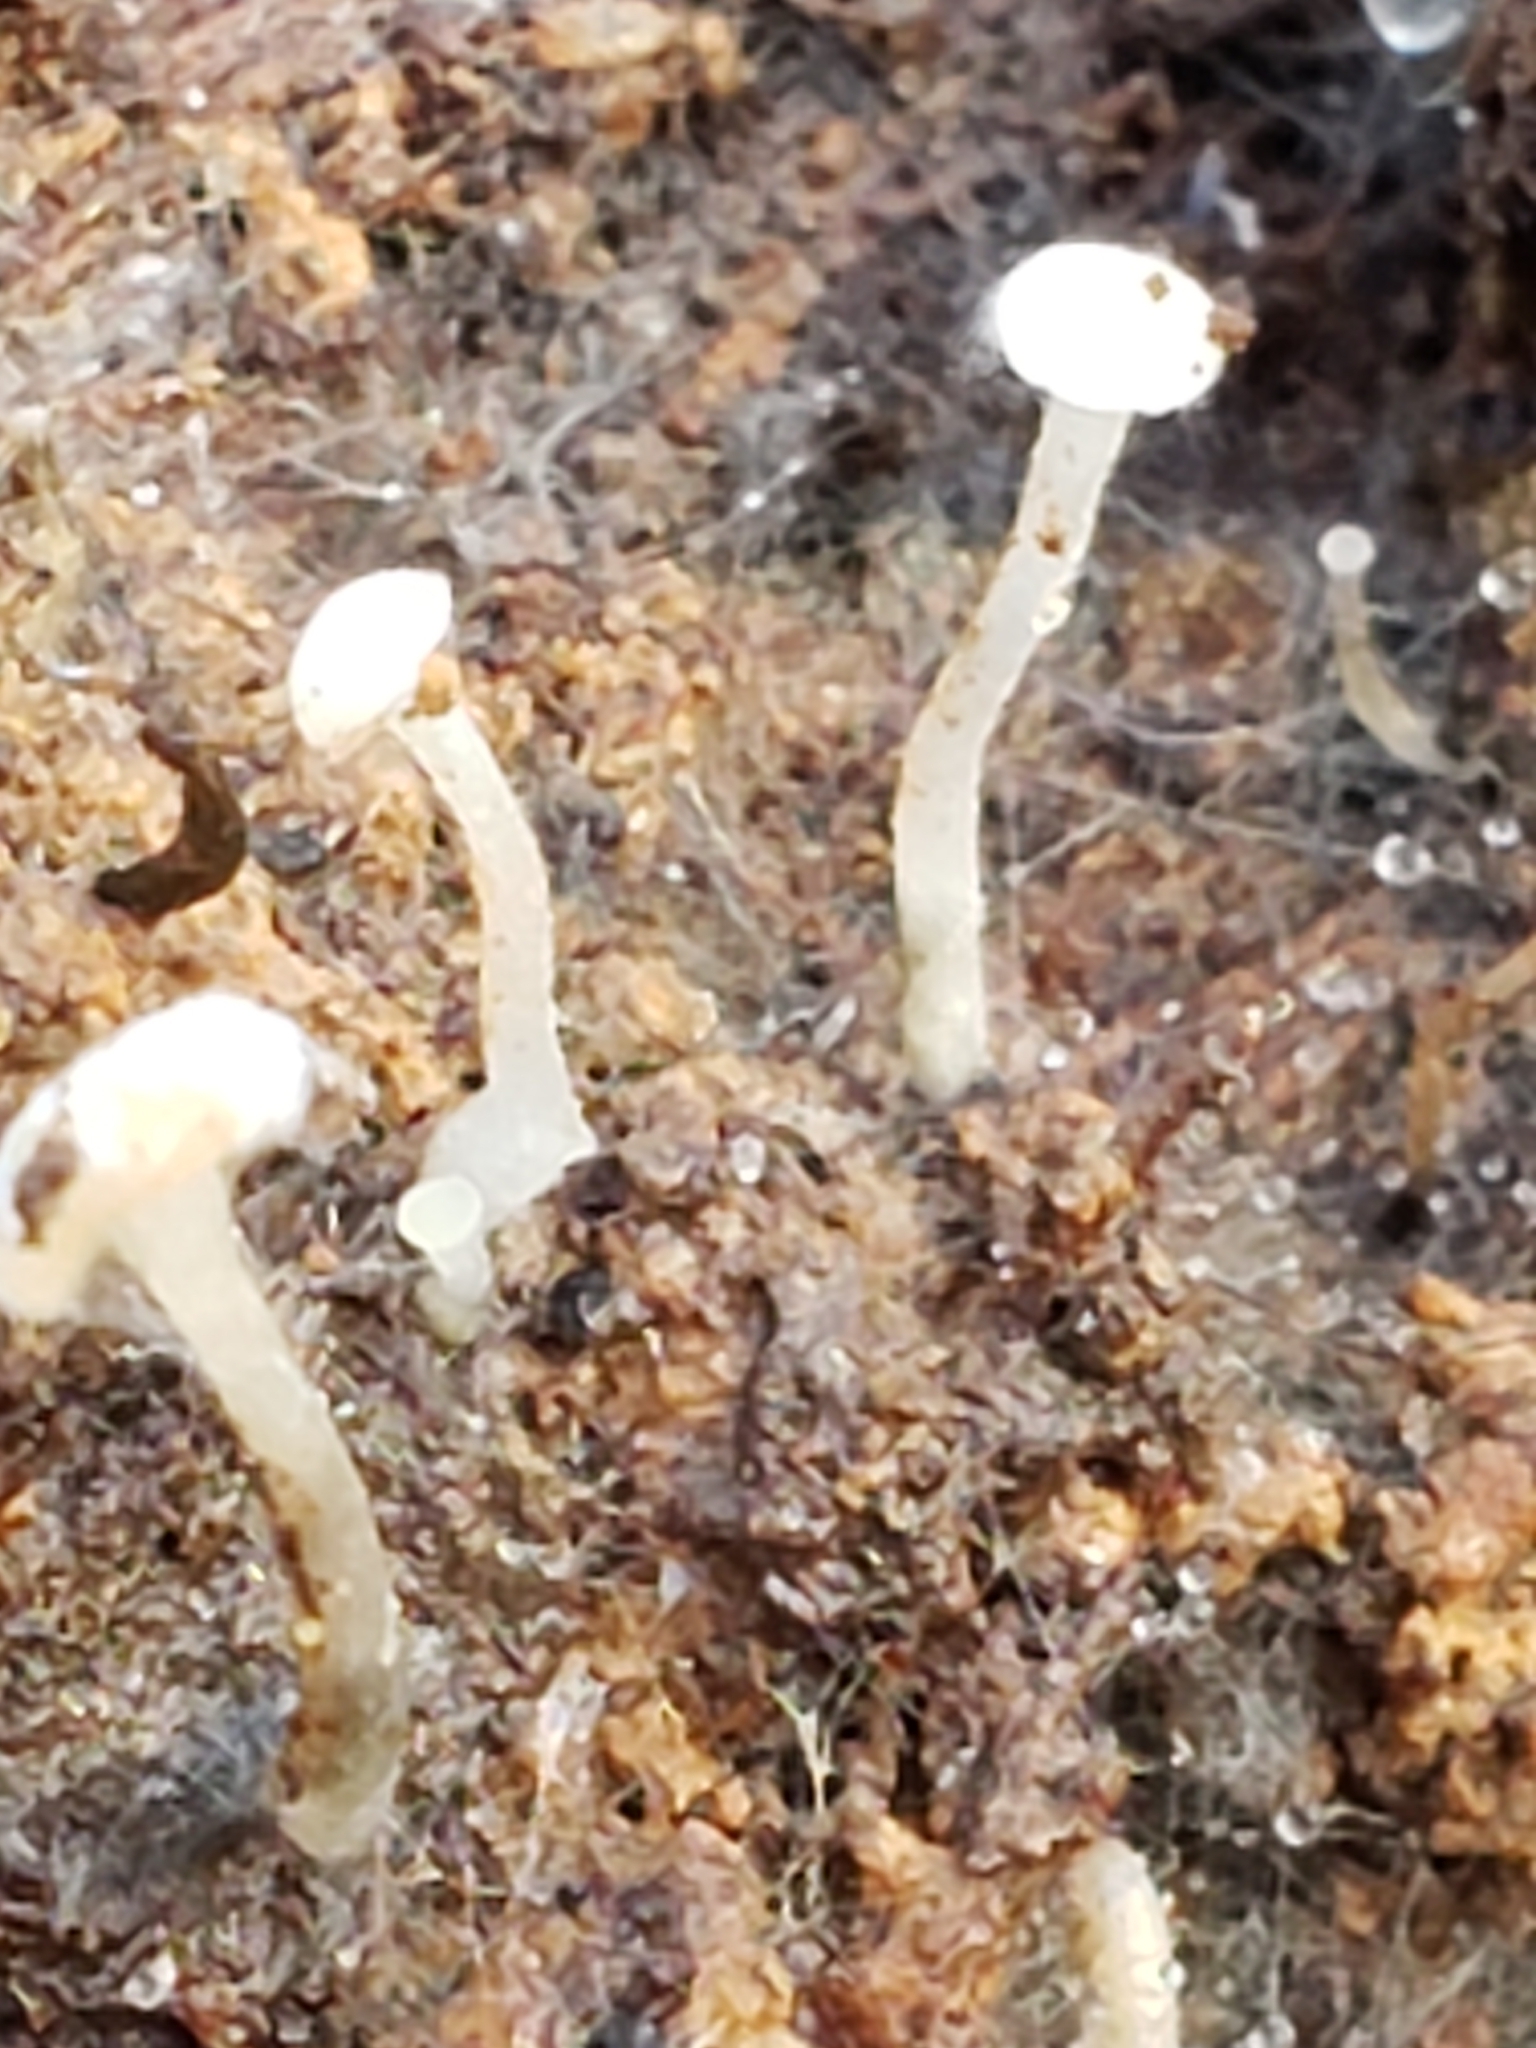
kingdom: Fungi
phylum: Ascomycota
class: Leotiomycetes
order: Helotiales
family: Tricladiaceae
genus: Cudoniella
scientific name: Cudoniella acicularis
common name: Oak pin
